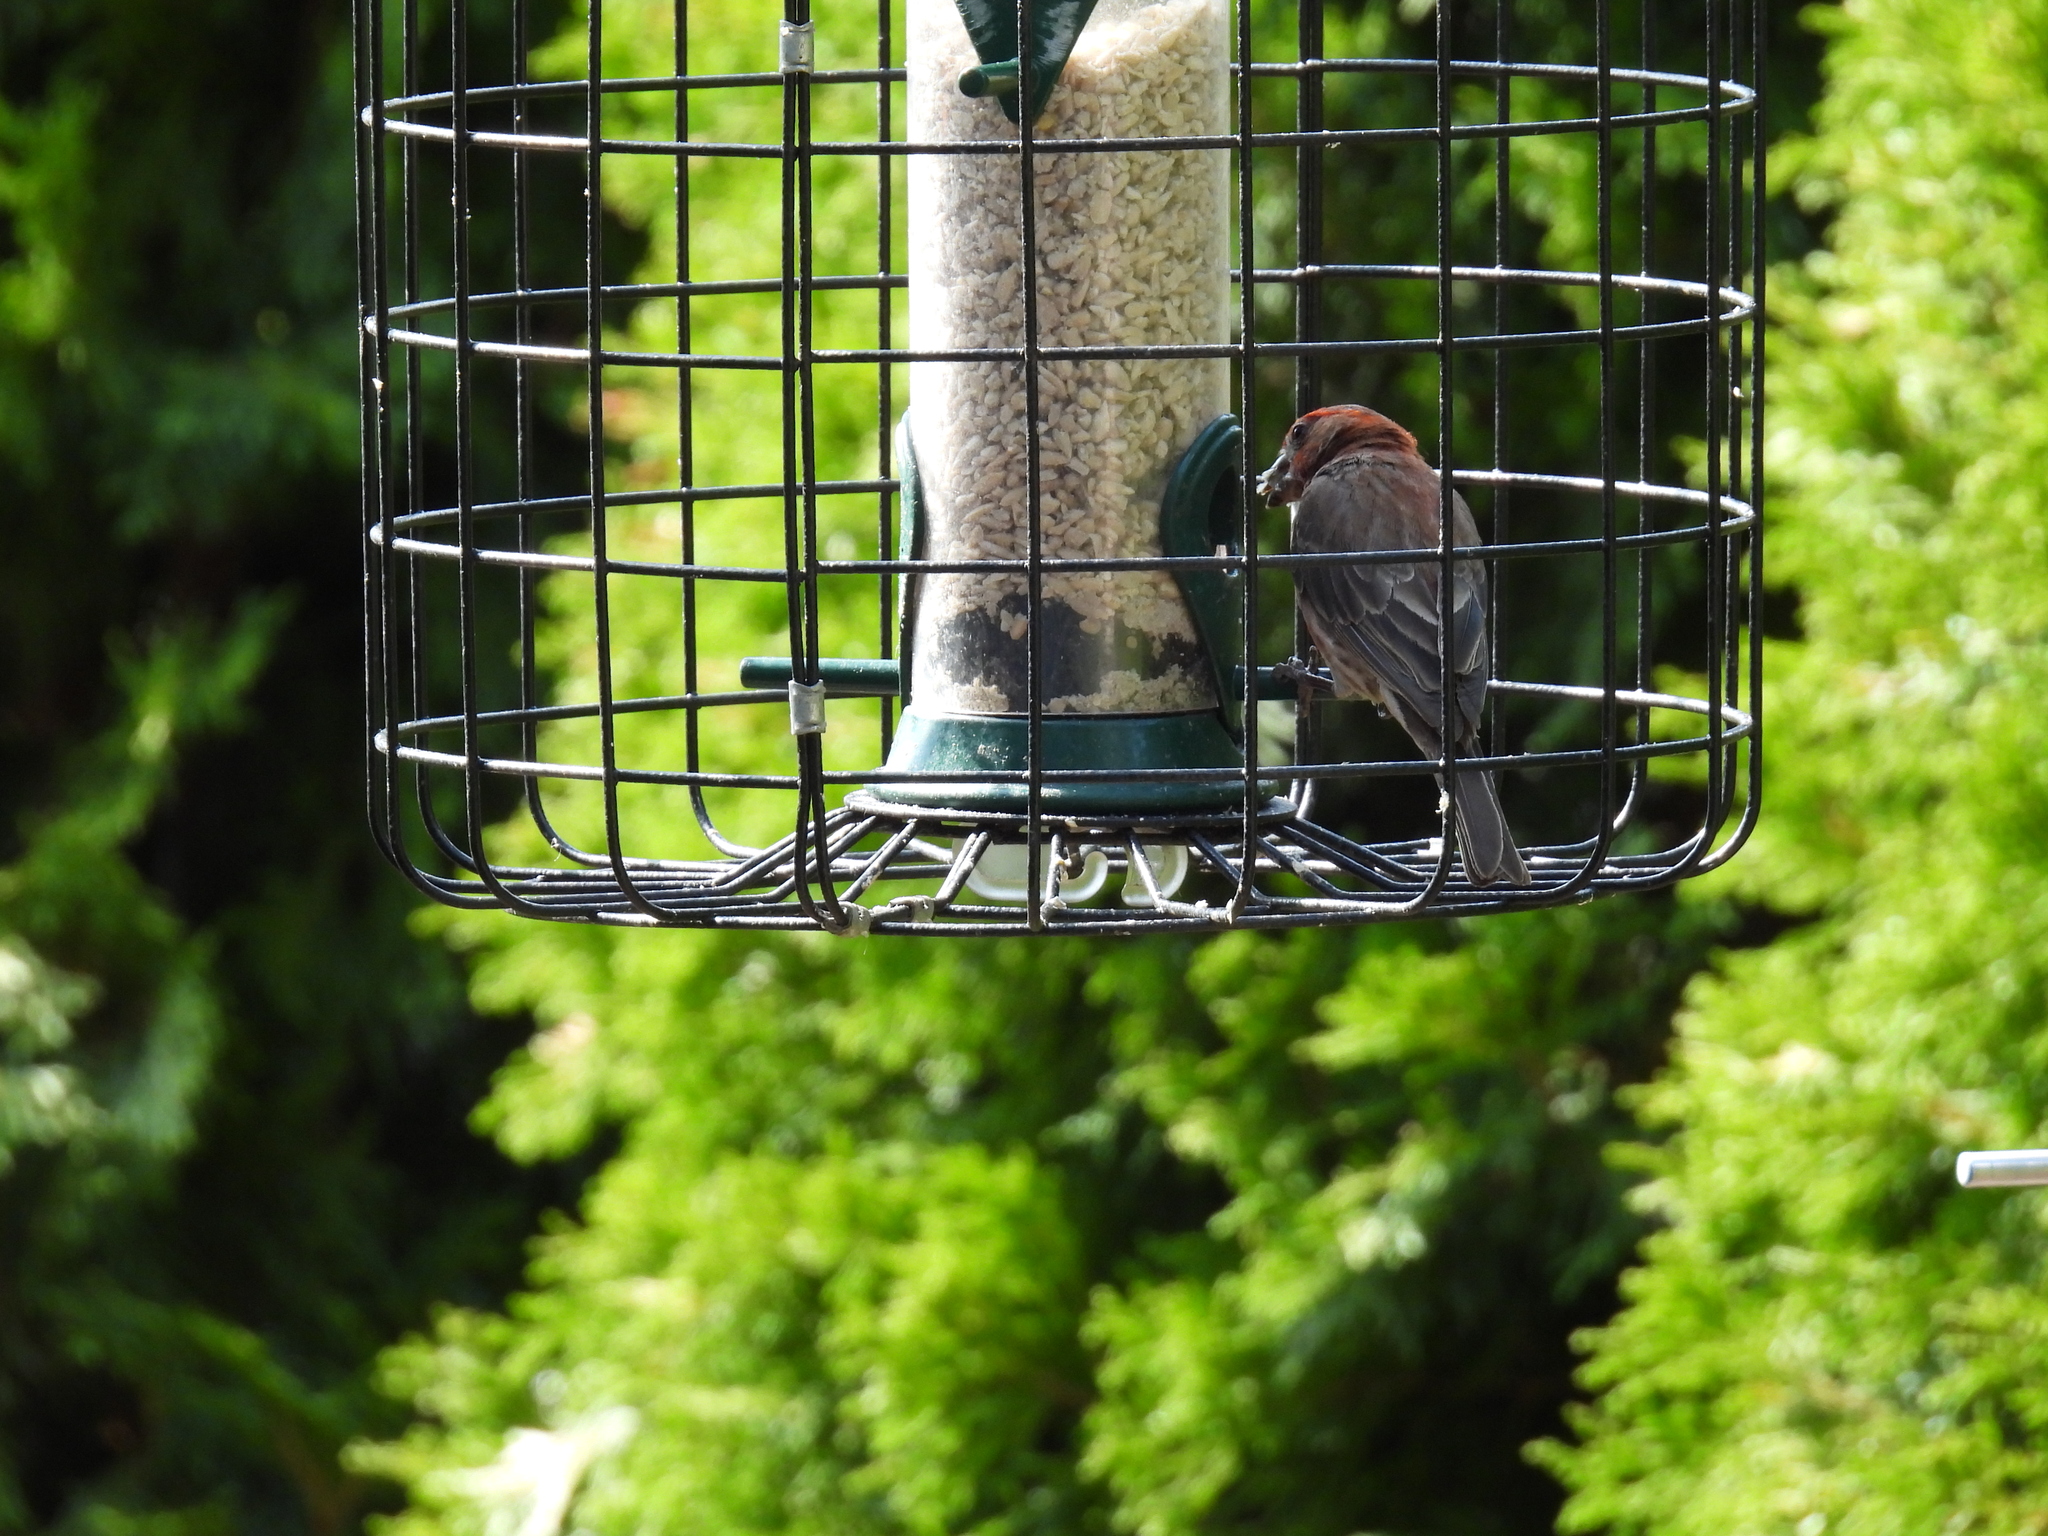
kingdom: Animalia
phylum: Chordata
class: Aves
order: Passeriformes
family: Fringillidae
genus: Haemorhous
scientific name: Haemorhous mexicanus
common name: House finch
